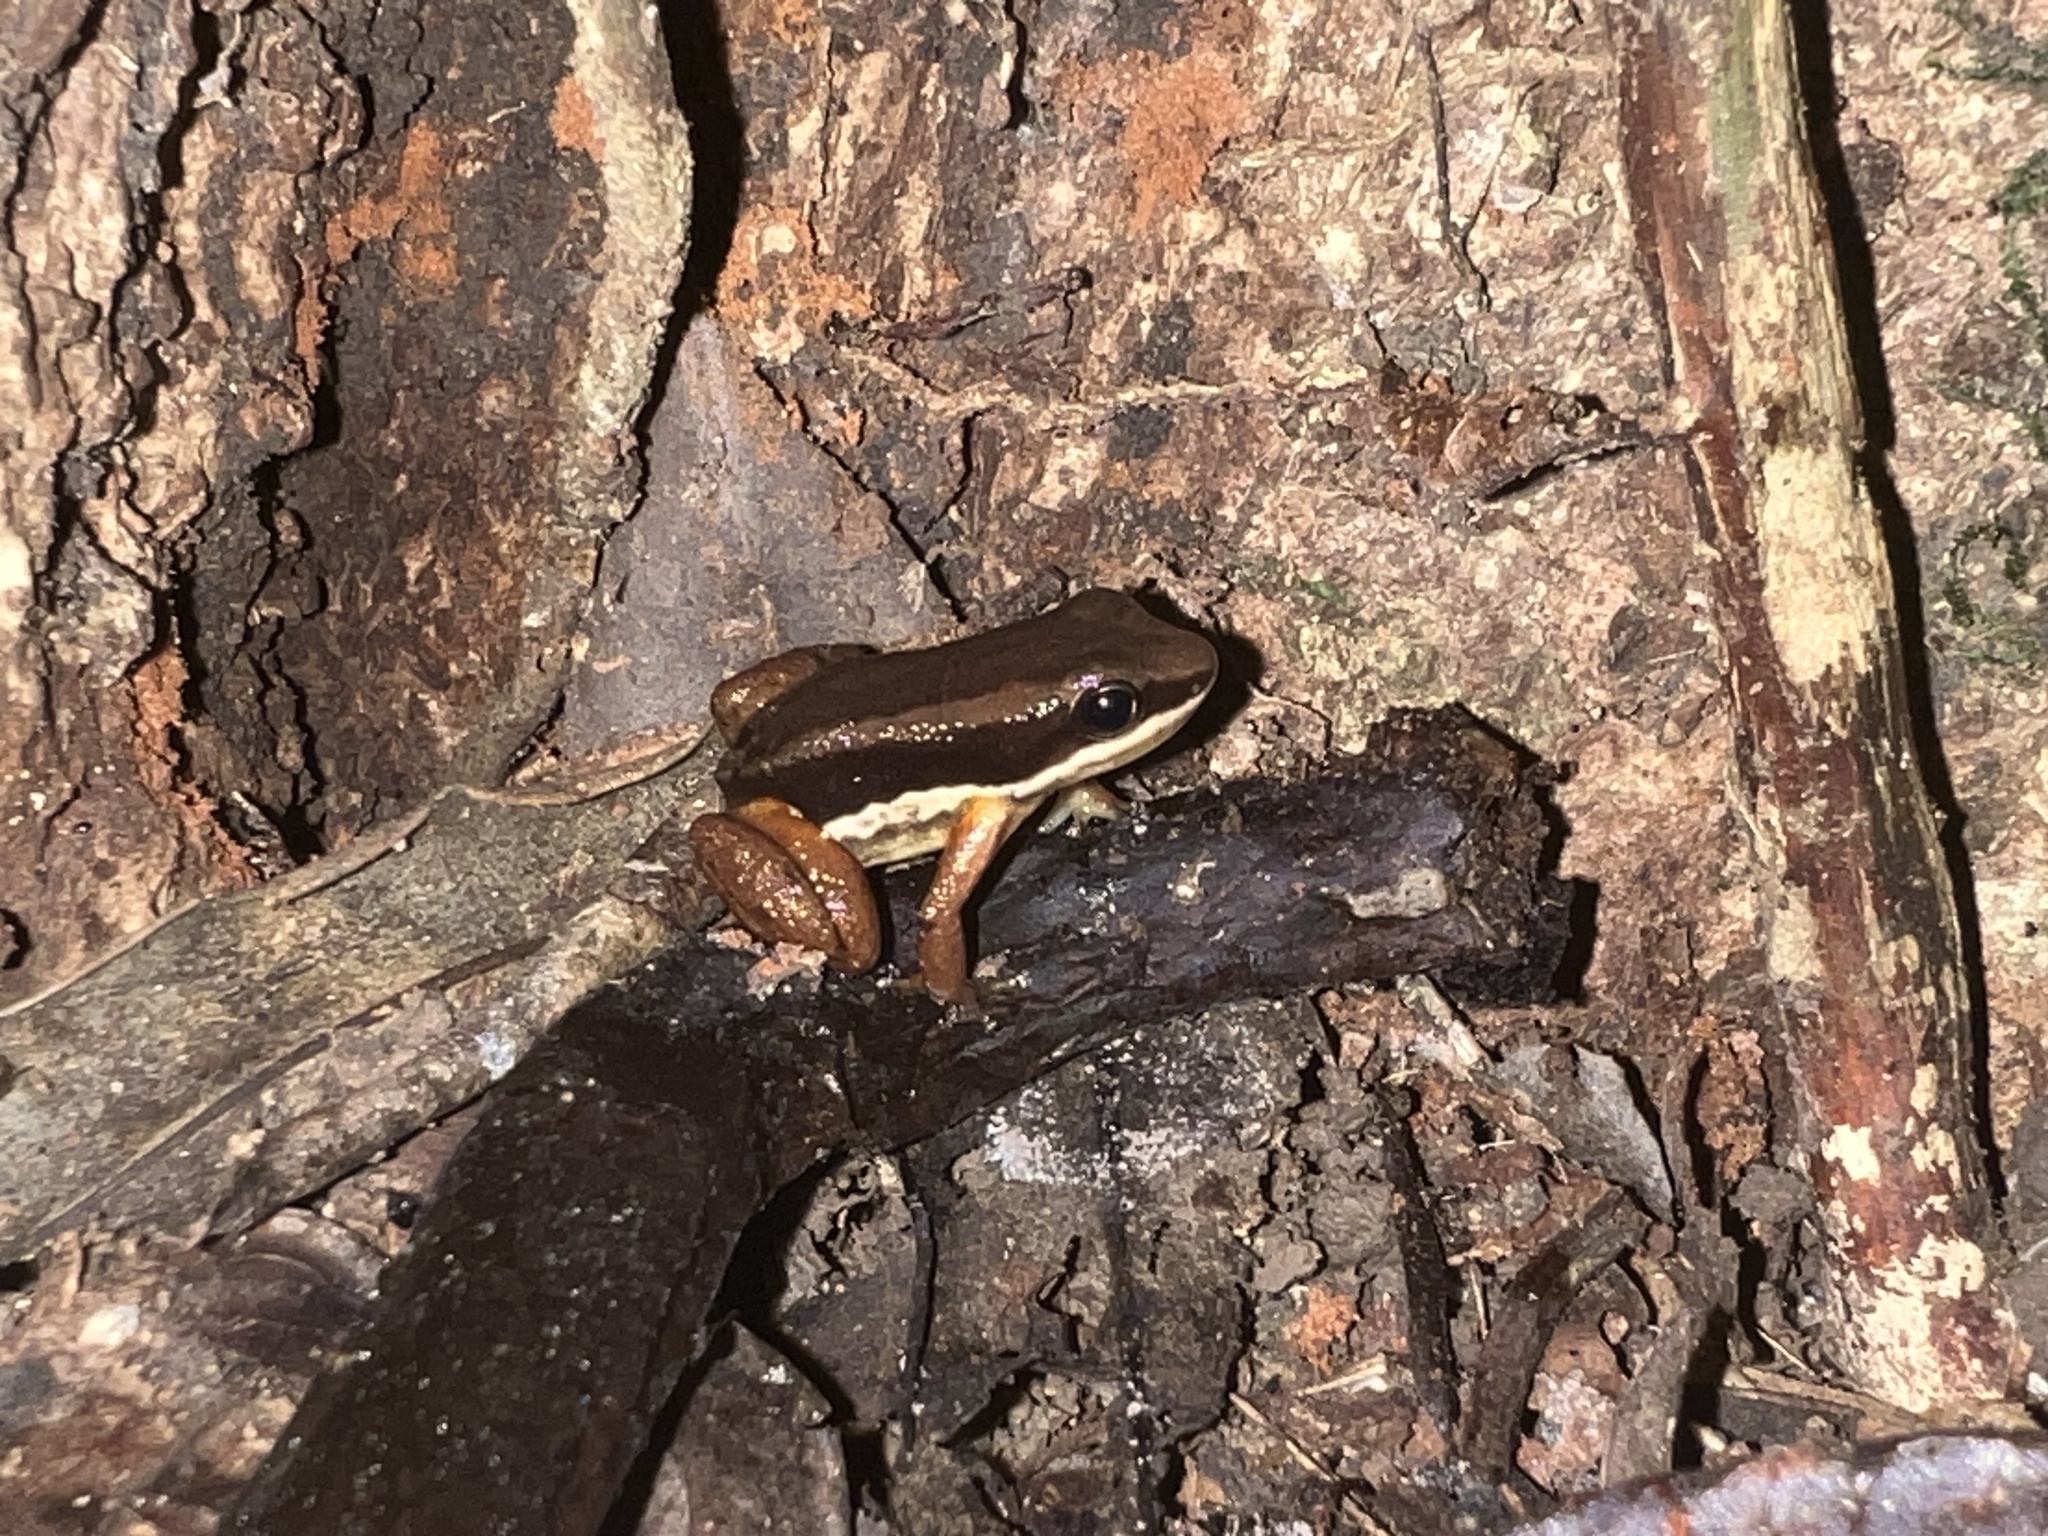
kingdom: Animalia
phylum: Chordata
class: Amphibia
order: Anura
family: Aromobatidae
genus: Allobates
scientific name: Allobates talamancae
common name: Talamanca rocket frog
